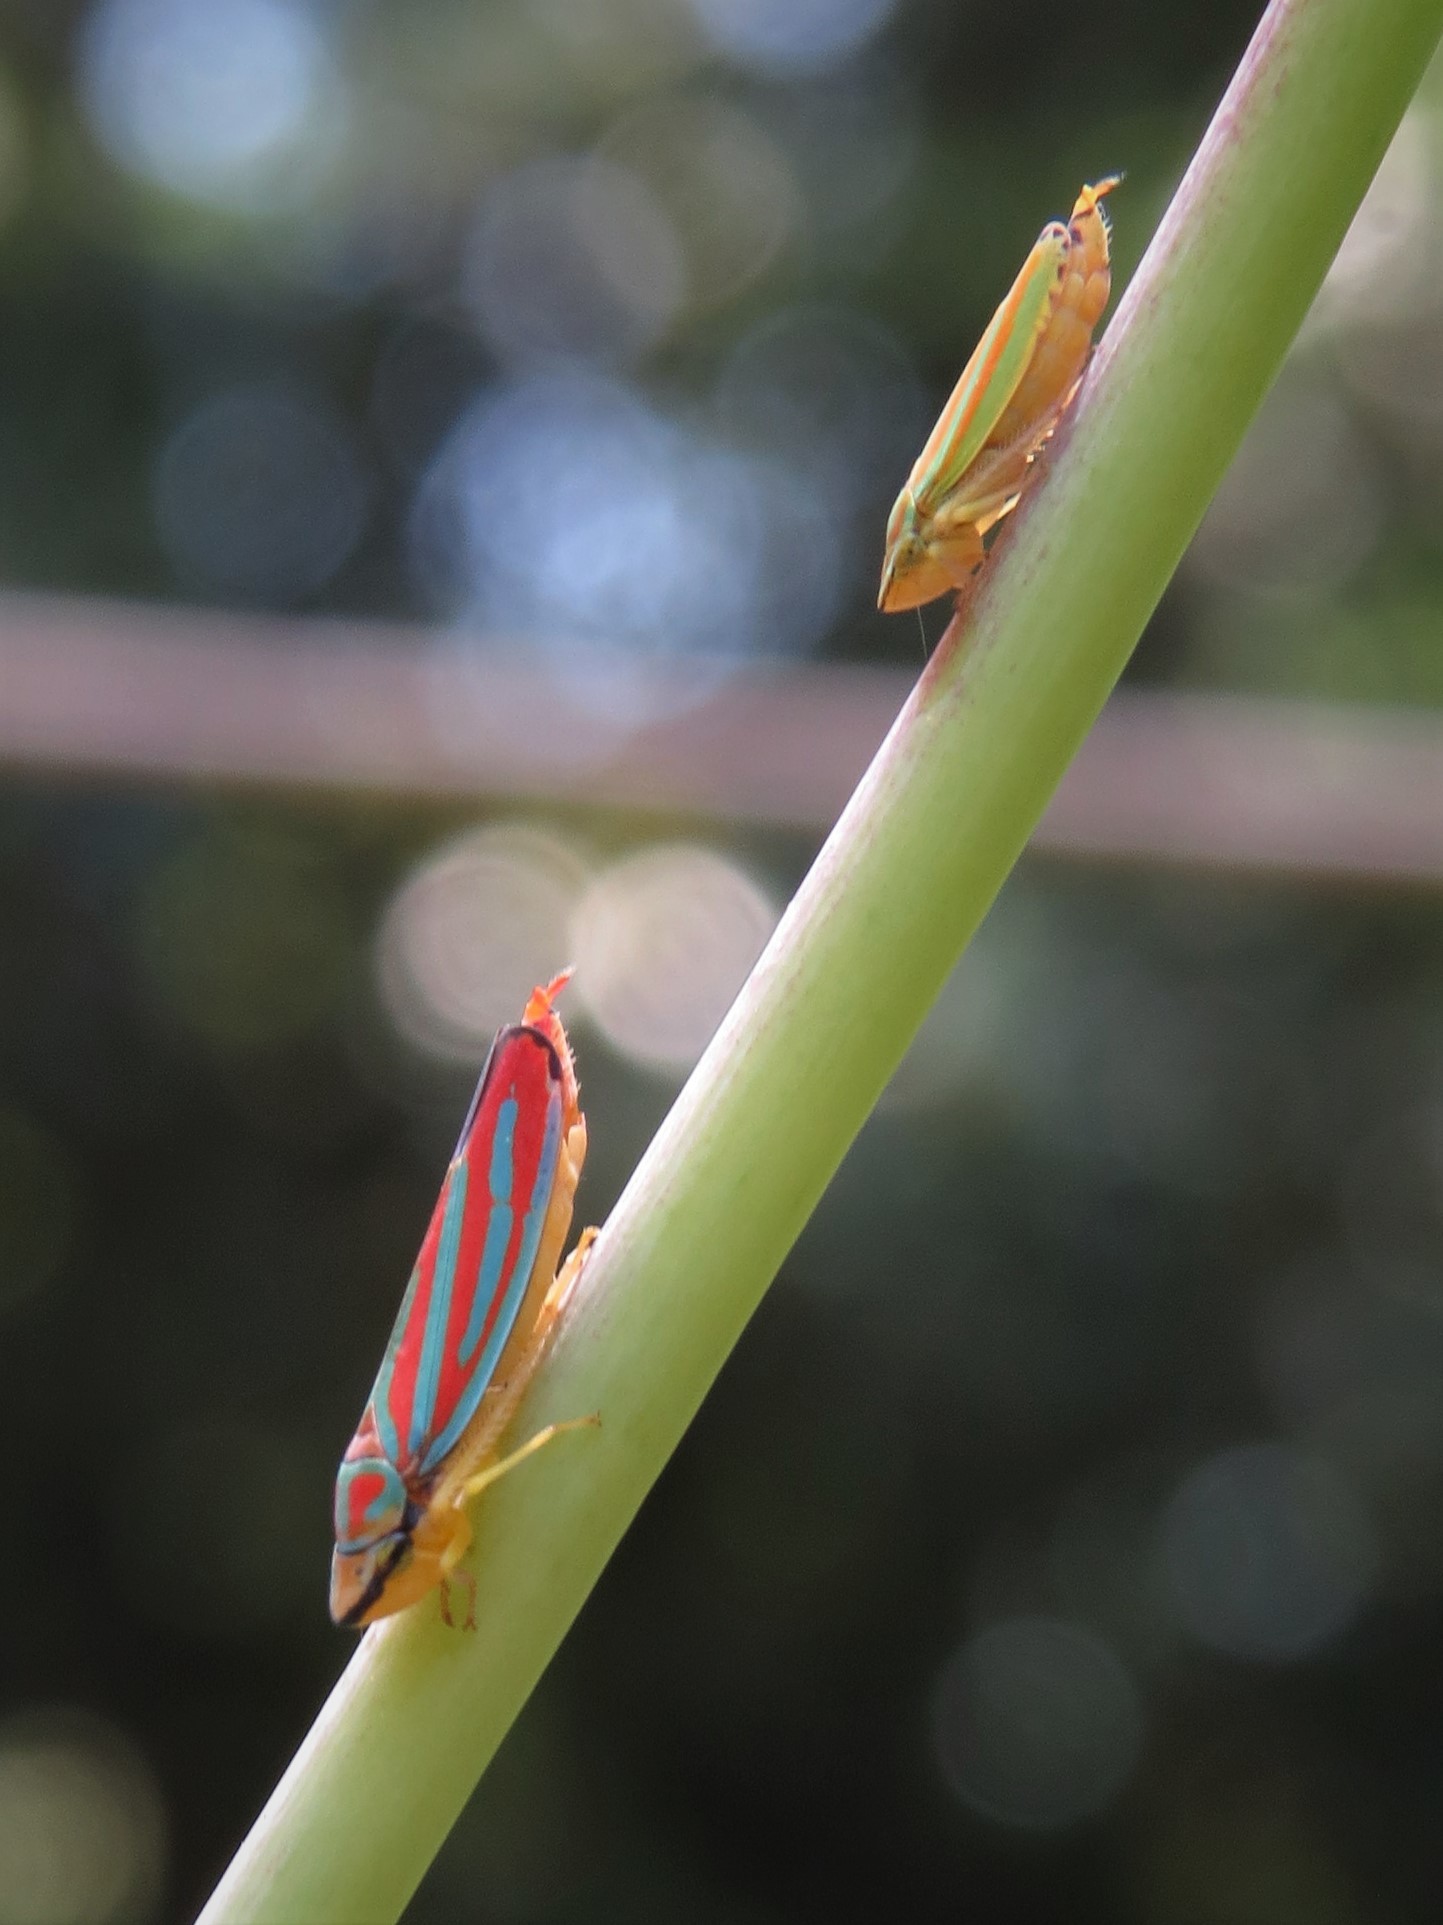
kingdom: Animalia
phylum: Arthropoda
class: Insecta
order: Hemiptera
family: Cicadellidae
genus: Graphocephala
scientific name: Graphocephala coccinea
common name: Candy-striped leafhopper
